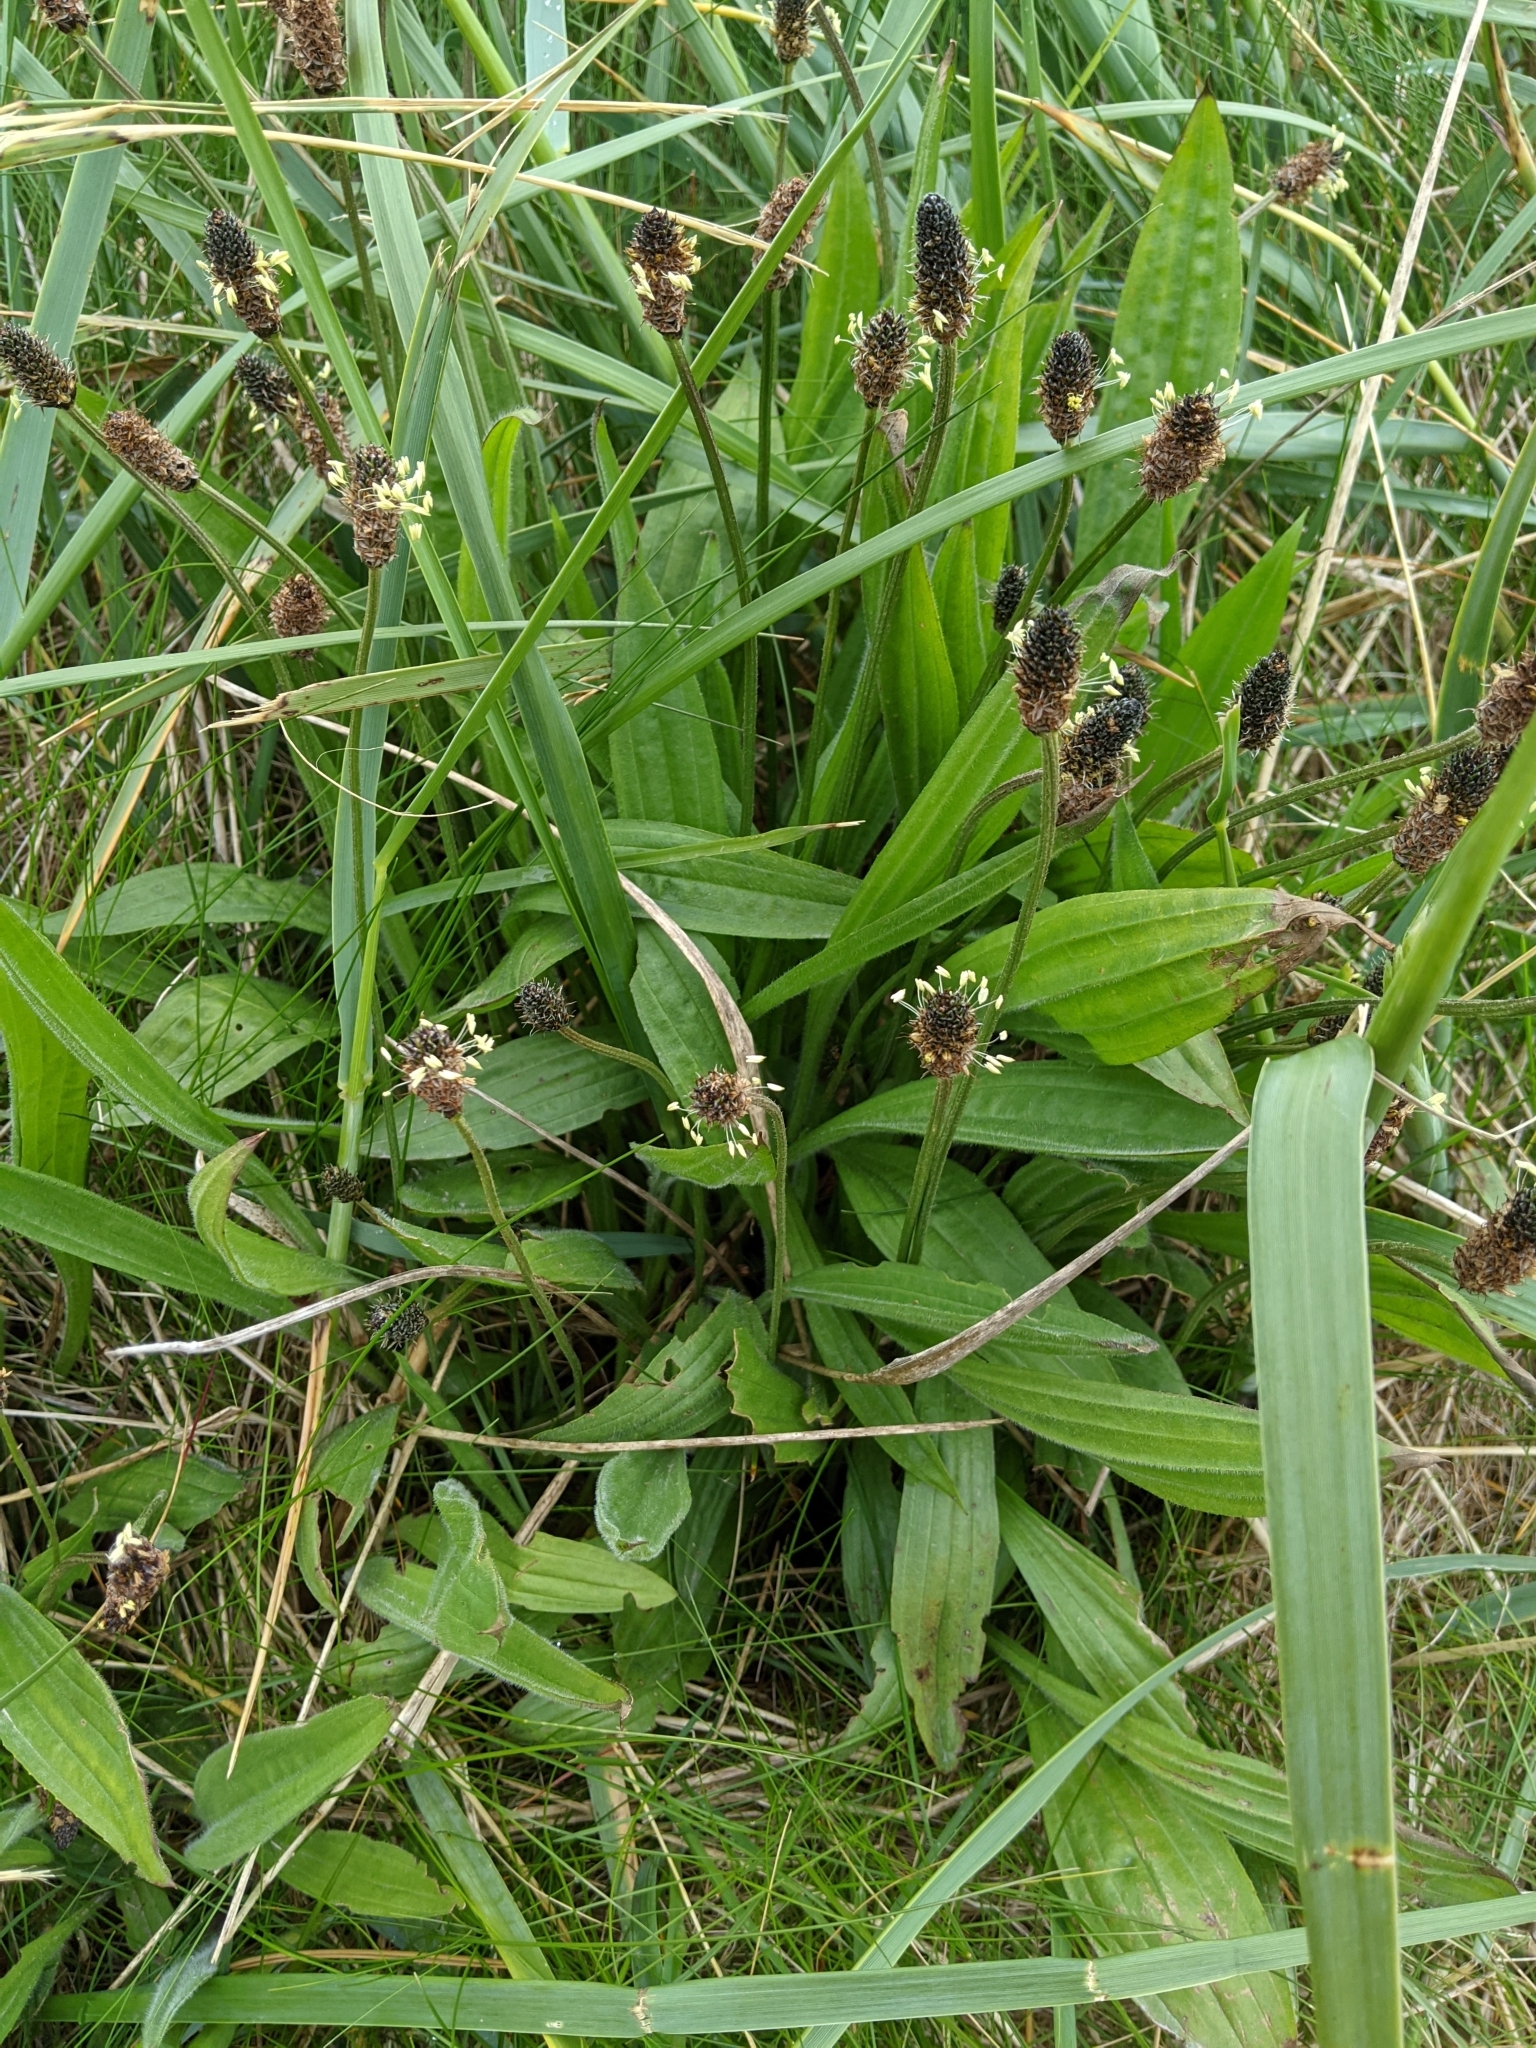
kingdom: Plantae
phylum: Tracheophyta
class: Magnoliopsida
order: Lamiales
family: Plantaginaceae
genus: Plantago
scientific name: Plantago lanceolata
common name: Ribwort plantain
